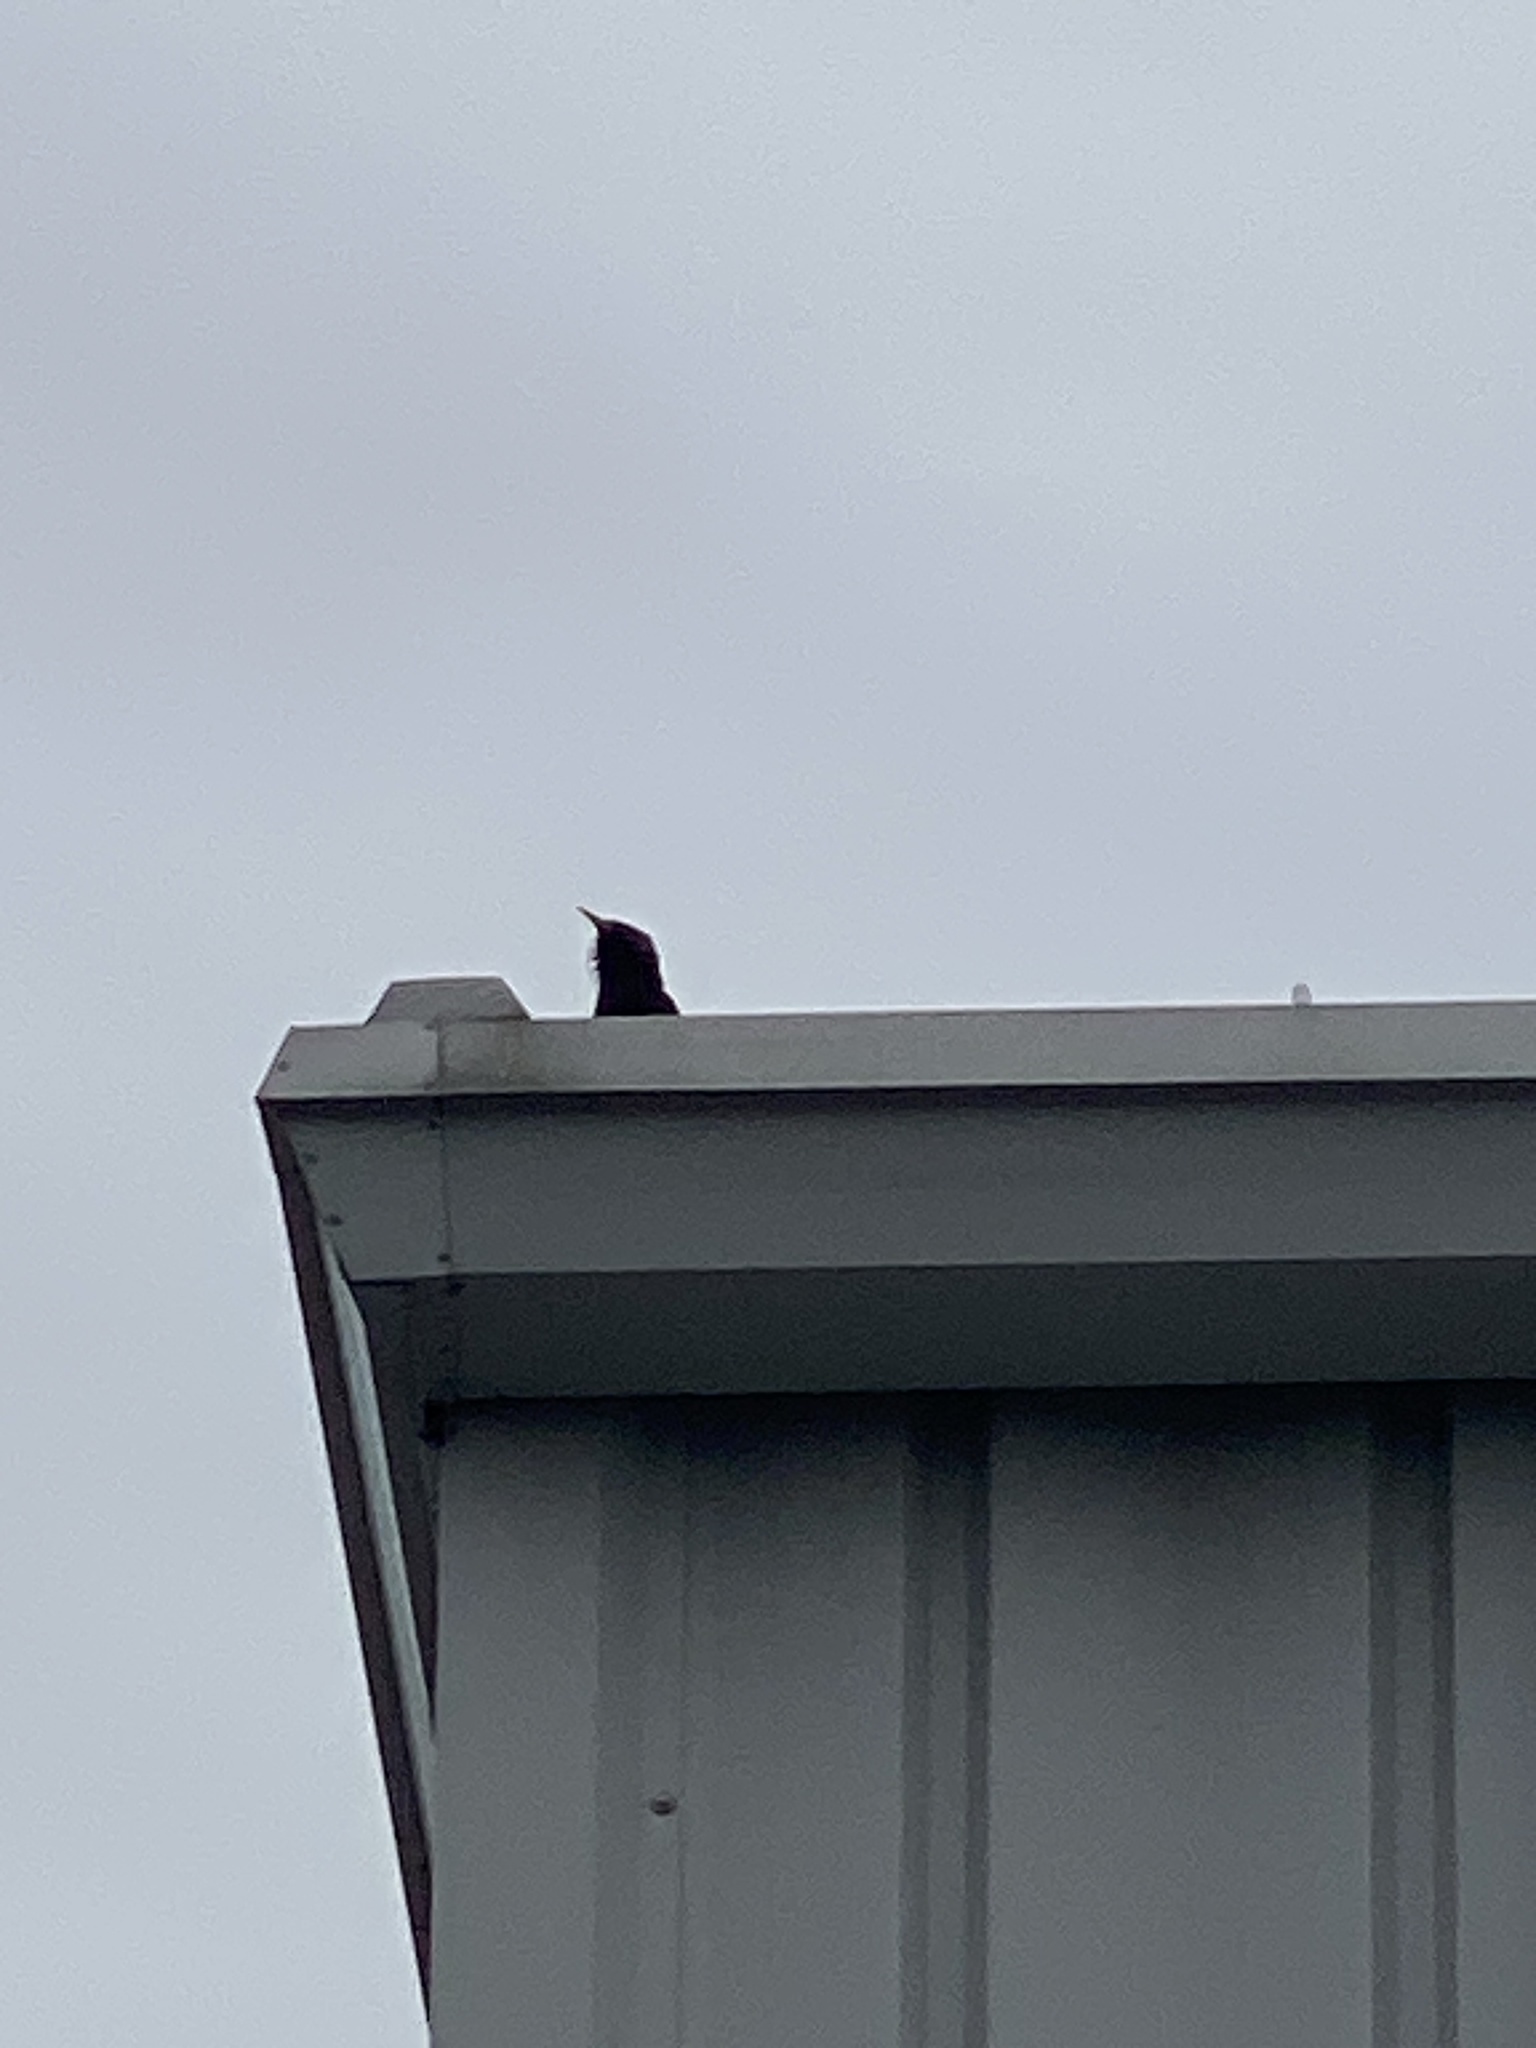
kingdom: Animalia
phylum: Chordata
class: Aves
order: Passeriformes
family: Sturnidae
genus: Sturnus
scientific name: Sturnus vulgaris
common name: Common starling
